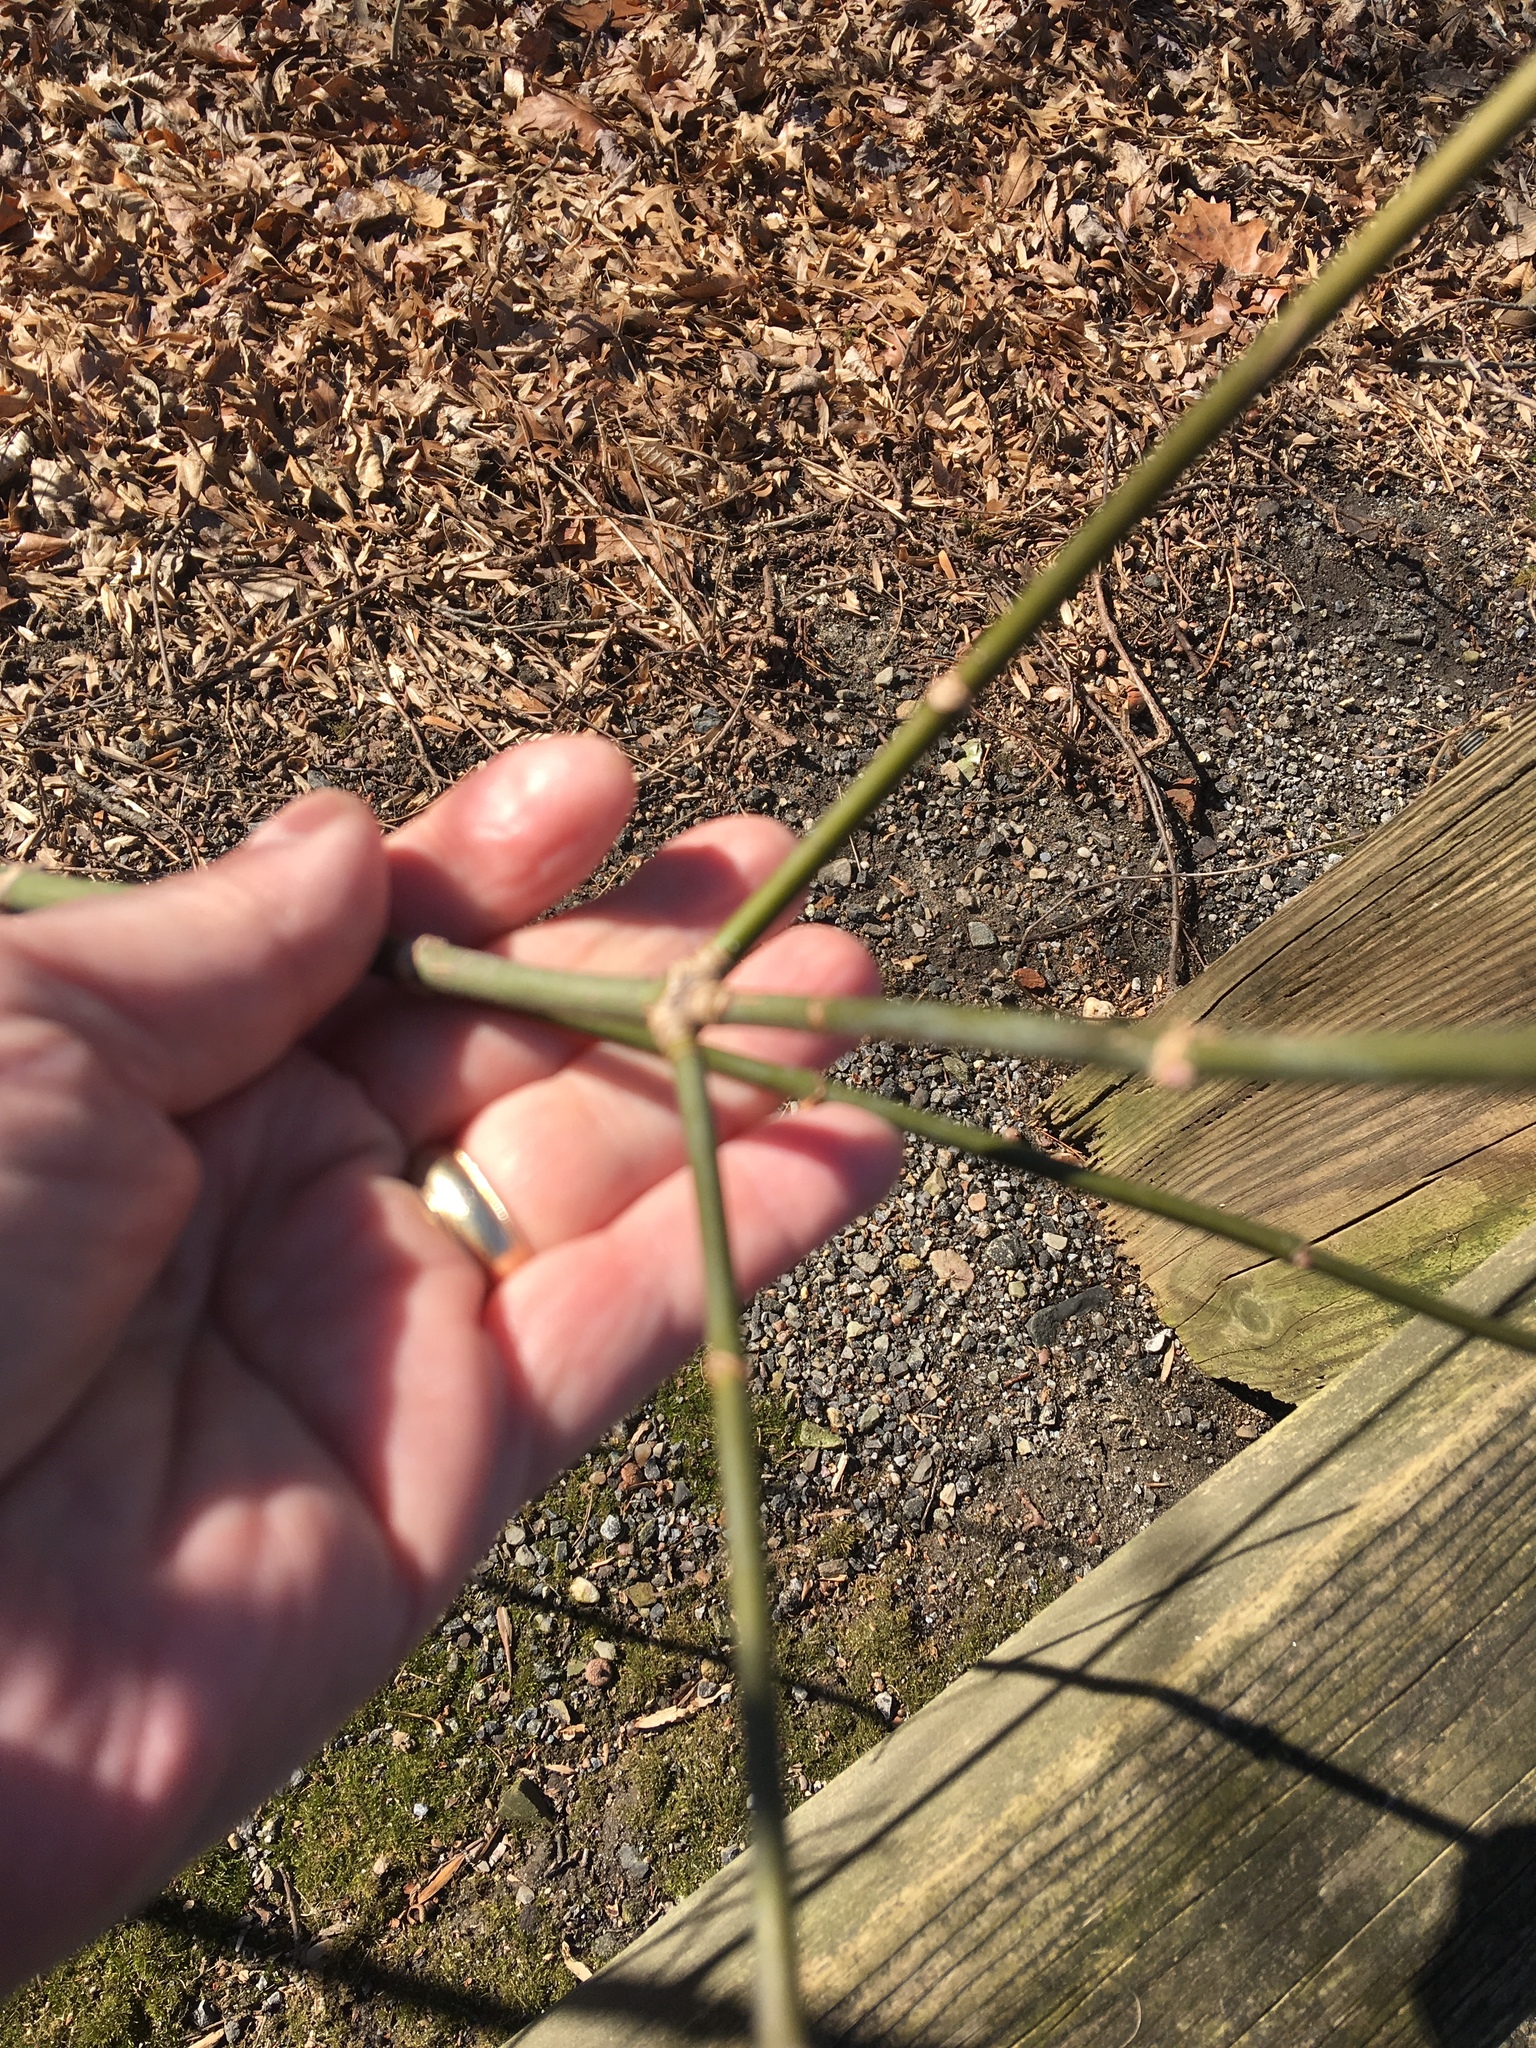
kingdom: Plantae
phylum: Tracheophyta
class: Magnoliopsida
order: Sapindales
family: Sapindaceae
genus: Acer
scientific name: Acer negundo
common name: Ashleaf maple
